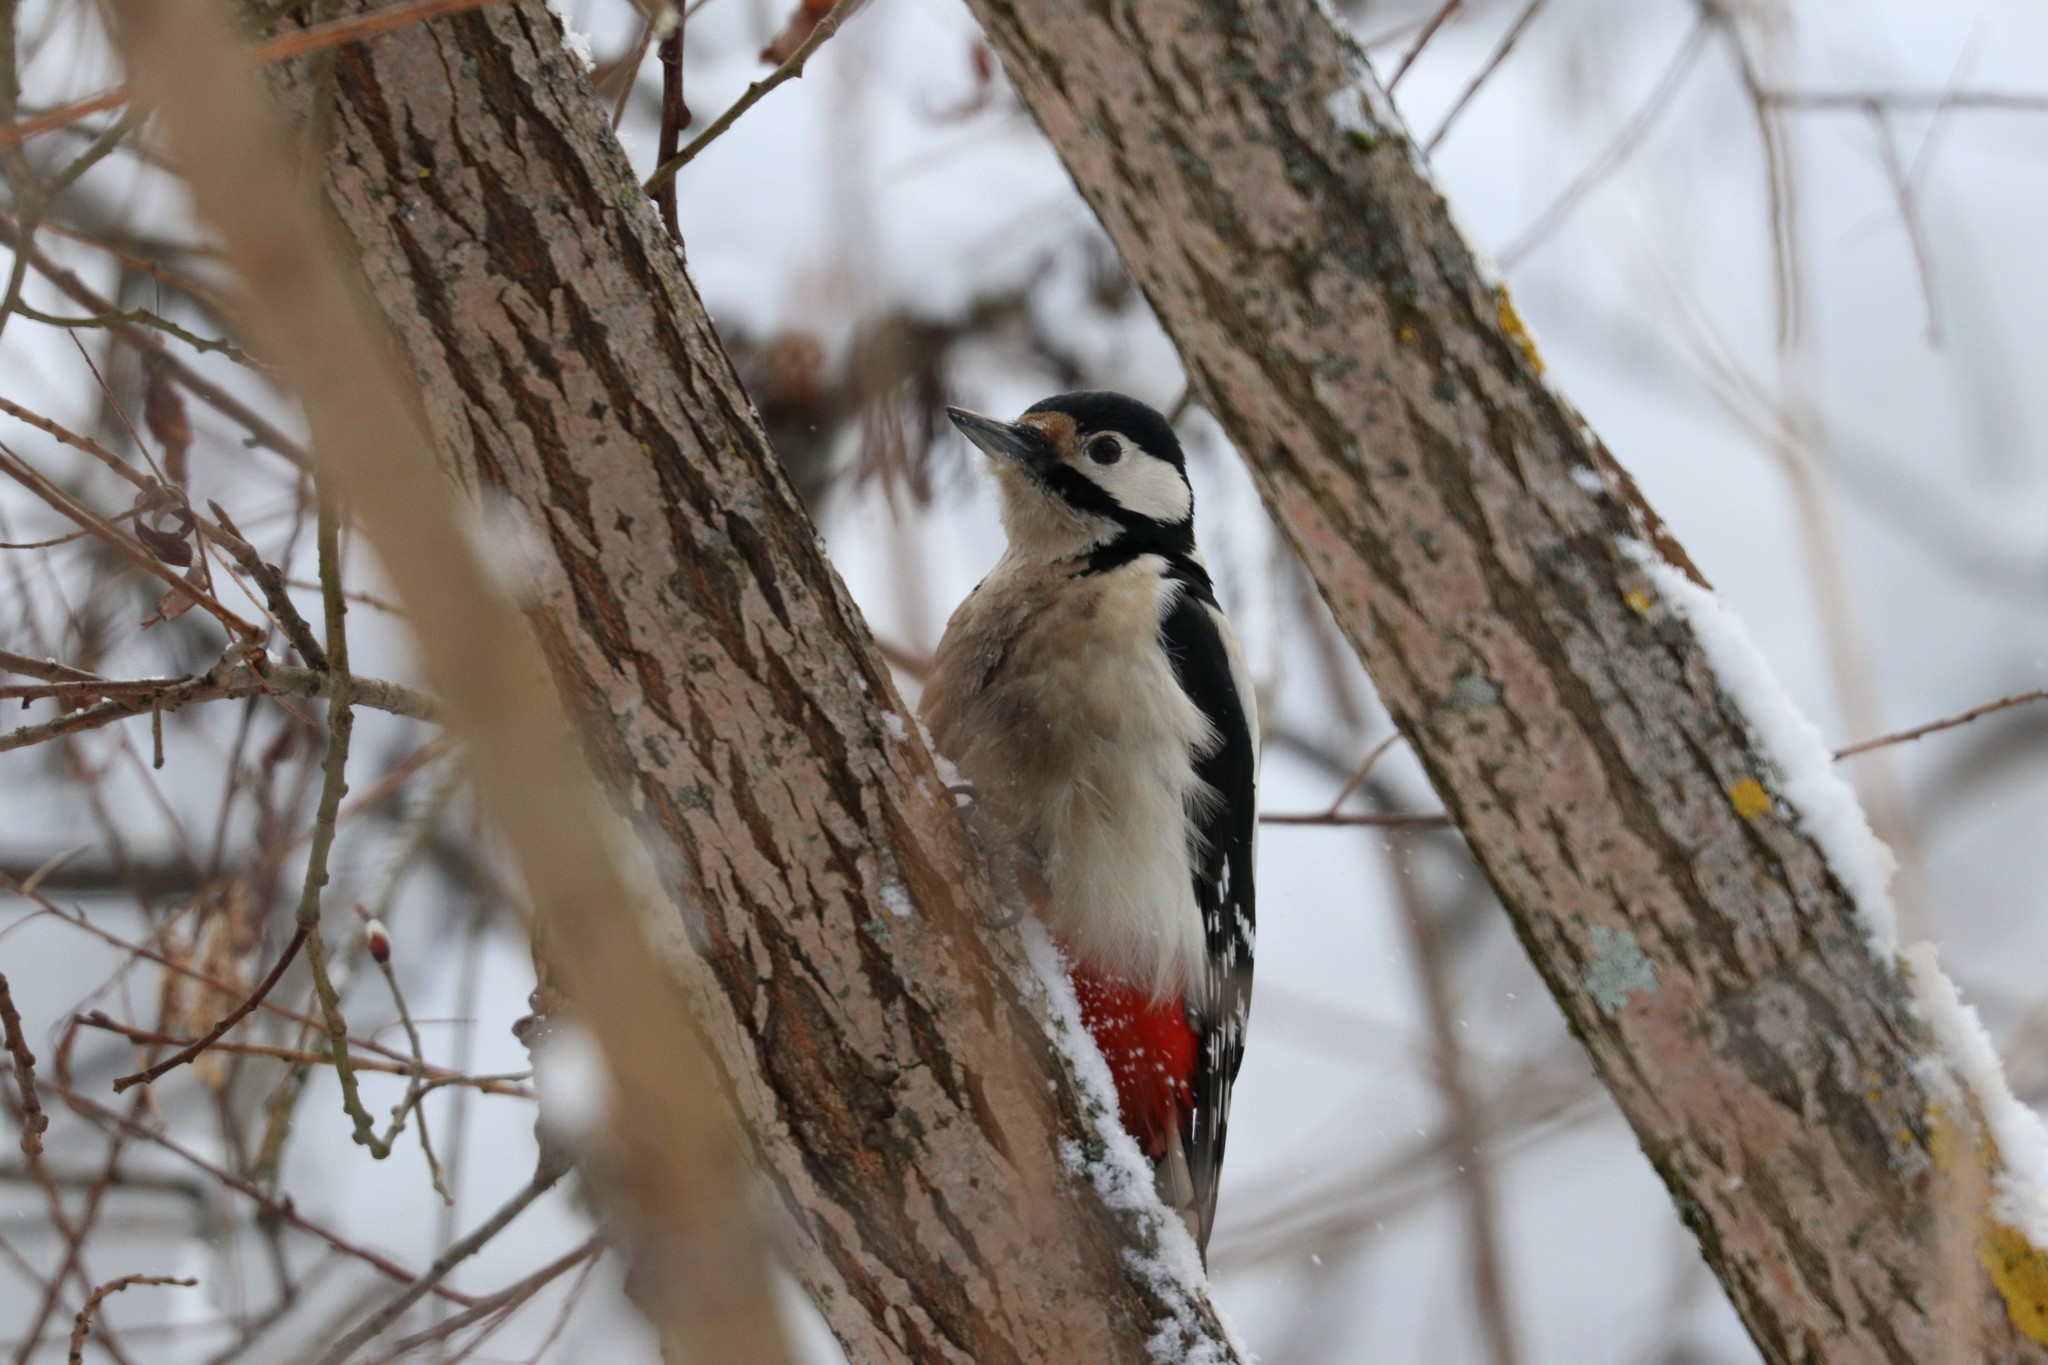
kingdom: Animalia
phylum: Chordata
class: Aves
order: Piciformes
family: Picidae
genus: Dendrocopos
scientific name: Dendrocopos major
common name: Great spotted woodpecker
